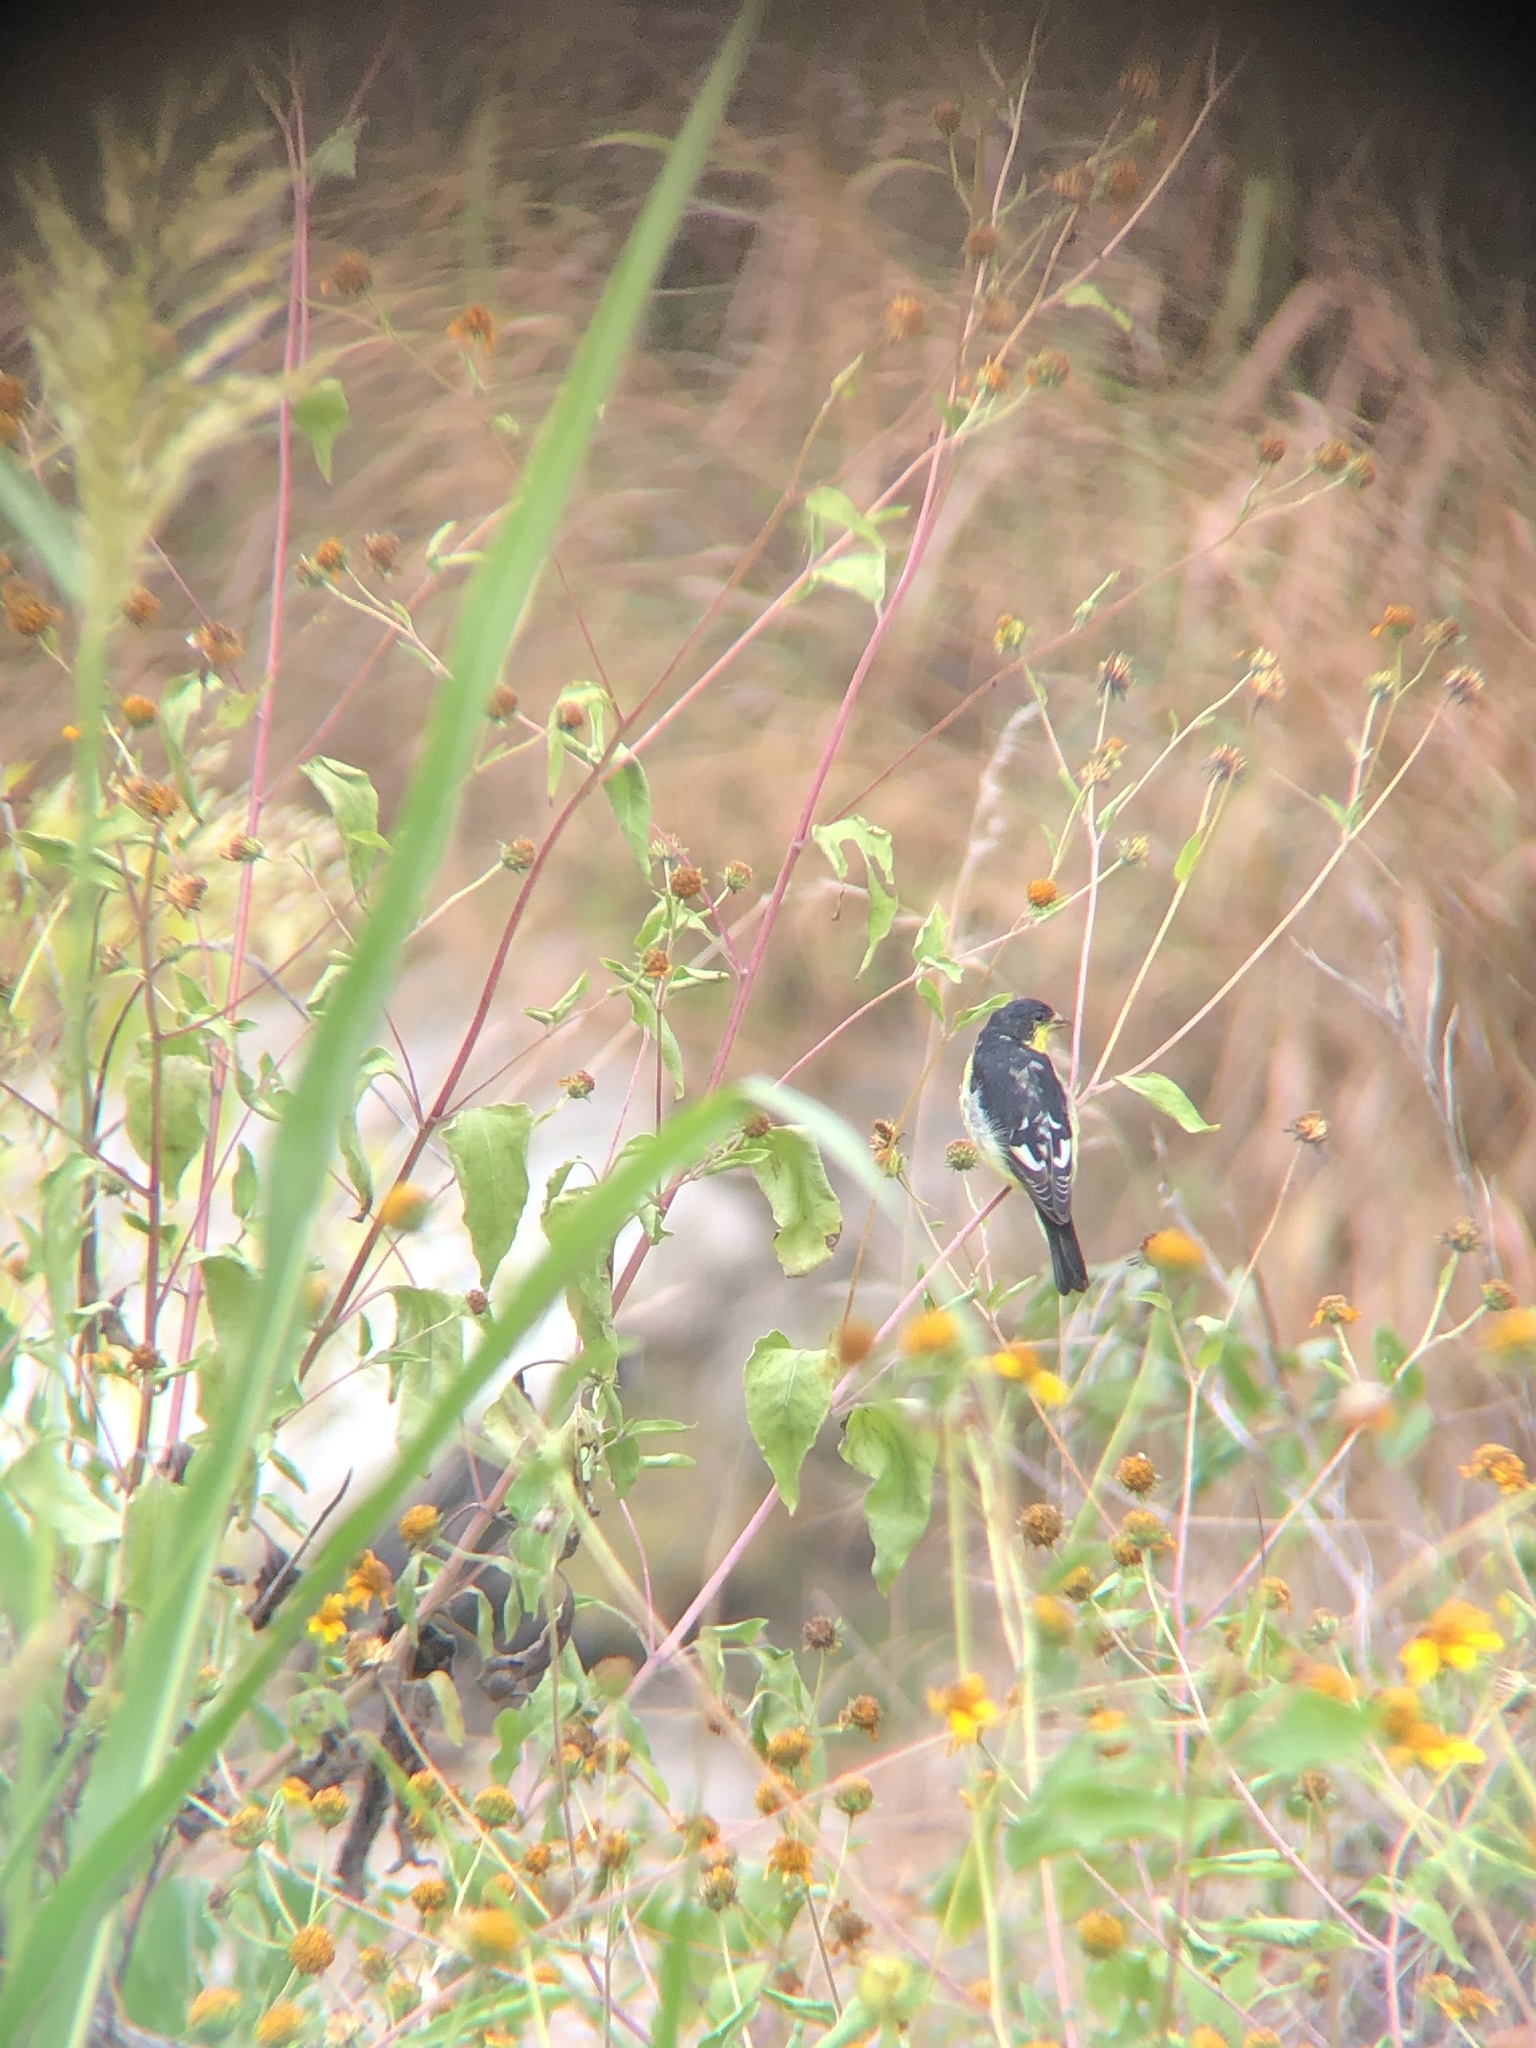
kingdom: Animalia
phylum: Chordata
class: Aves
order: Passeriformes
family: Fringillidae
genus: Spinus
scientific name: Spinus psaltria
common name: Lesser goldfinch
